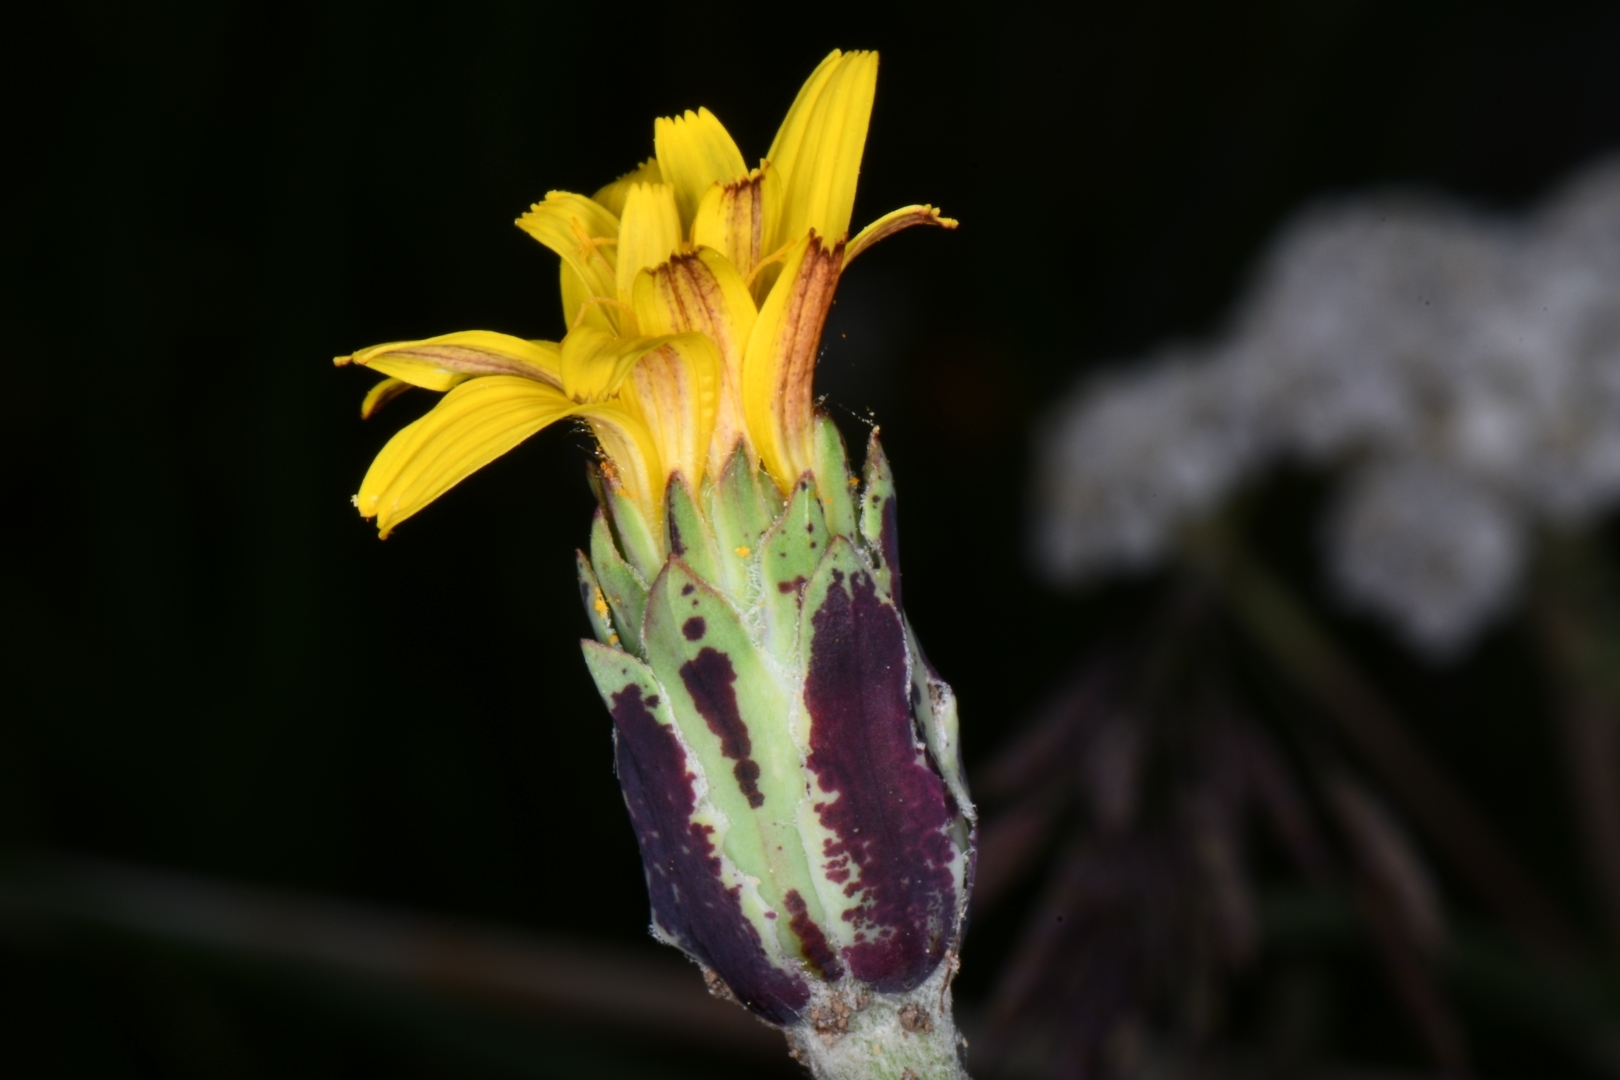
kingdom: Plantae
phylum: Tracheophyta
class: Magnoliopsida
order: Asterales
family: Asteraceae
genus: Agoseris
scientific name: Agoseris glauca
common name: Prairie agoseris
